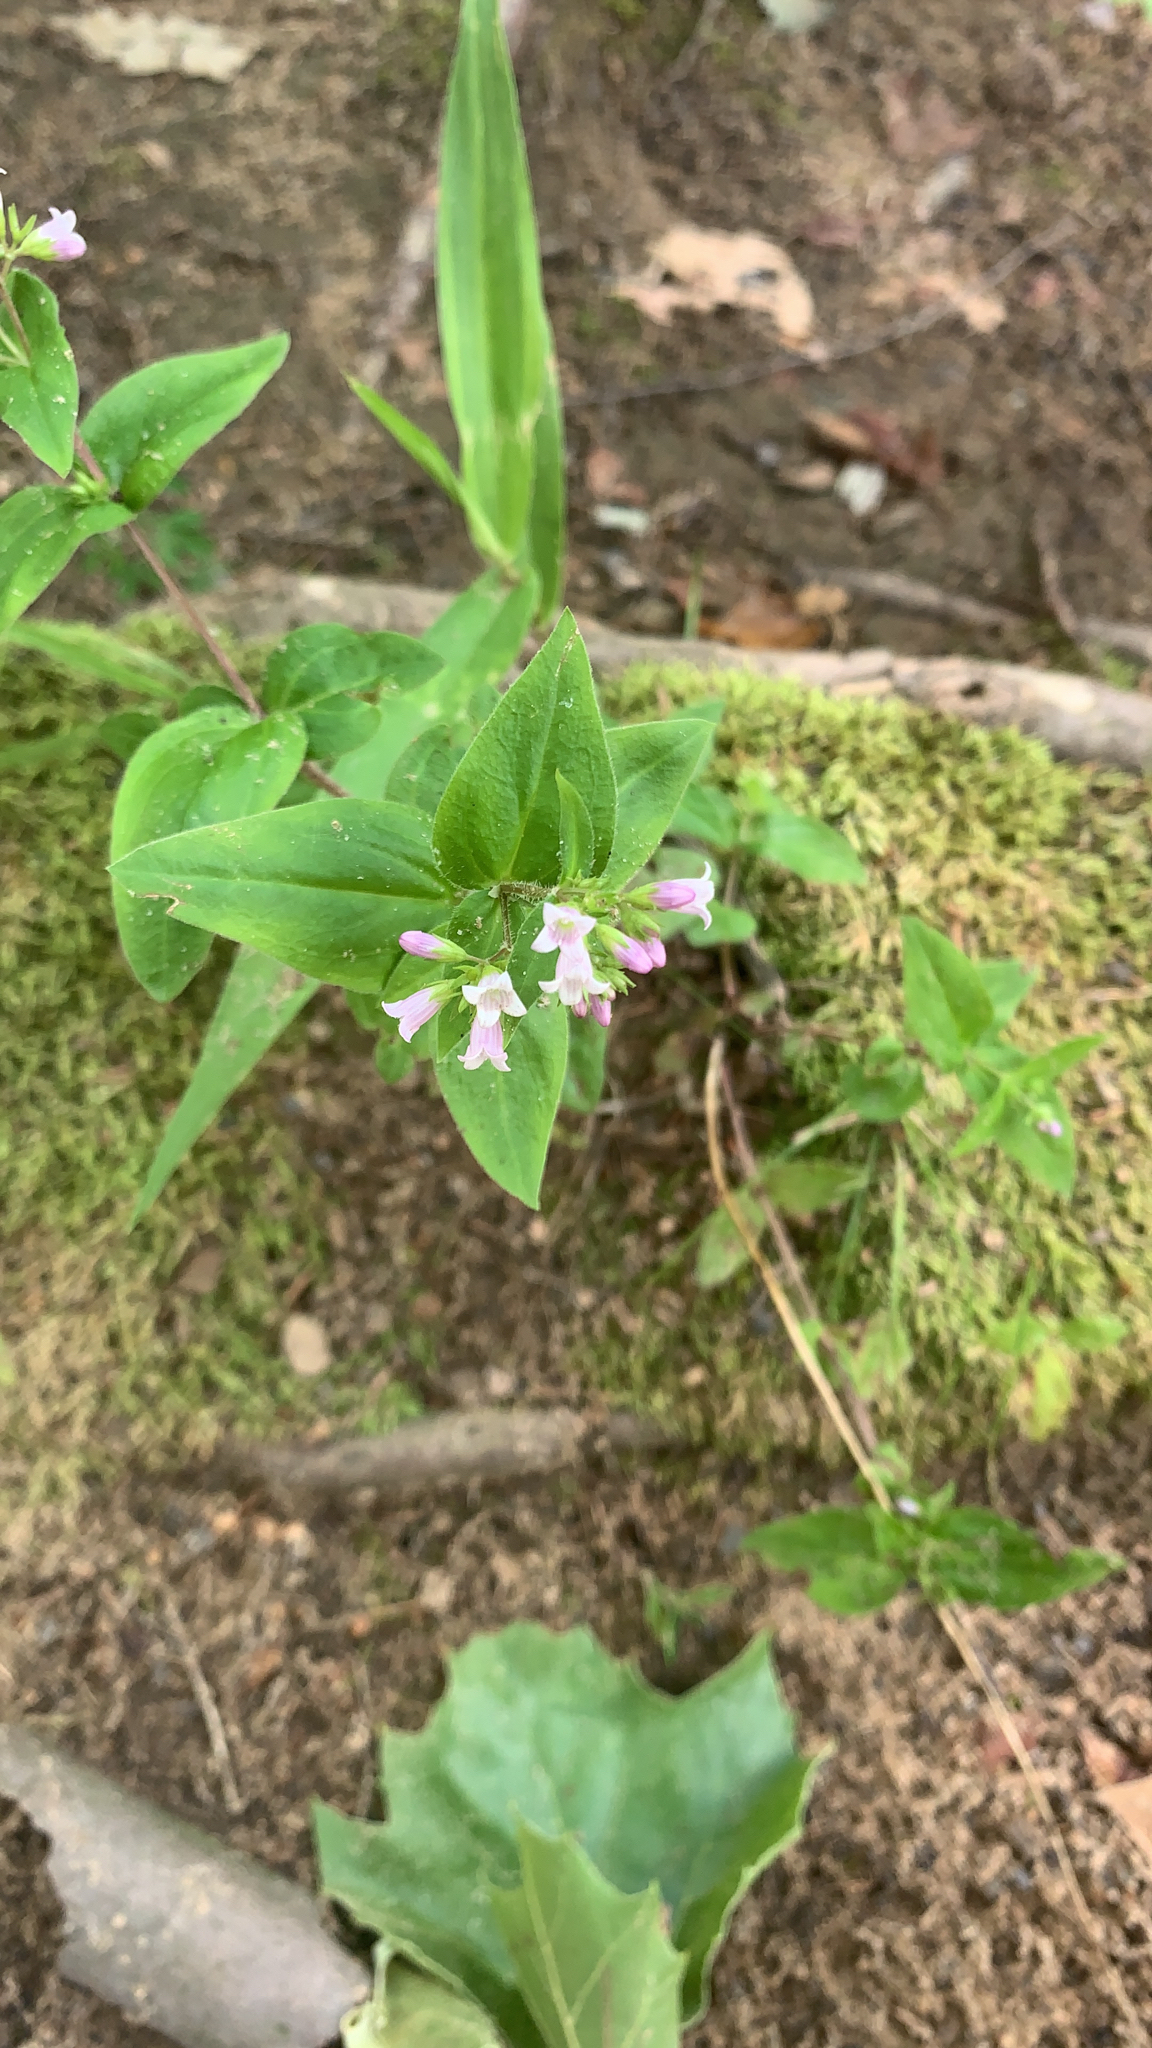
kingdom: Plantae
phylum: Tracheophyta
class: Magnoliopsida
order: Gentianales
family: Rubiaceae
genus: Houstonia
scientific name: Houstonia purpurea
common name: Summer bluet
